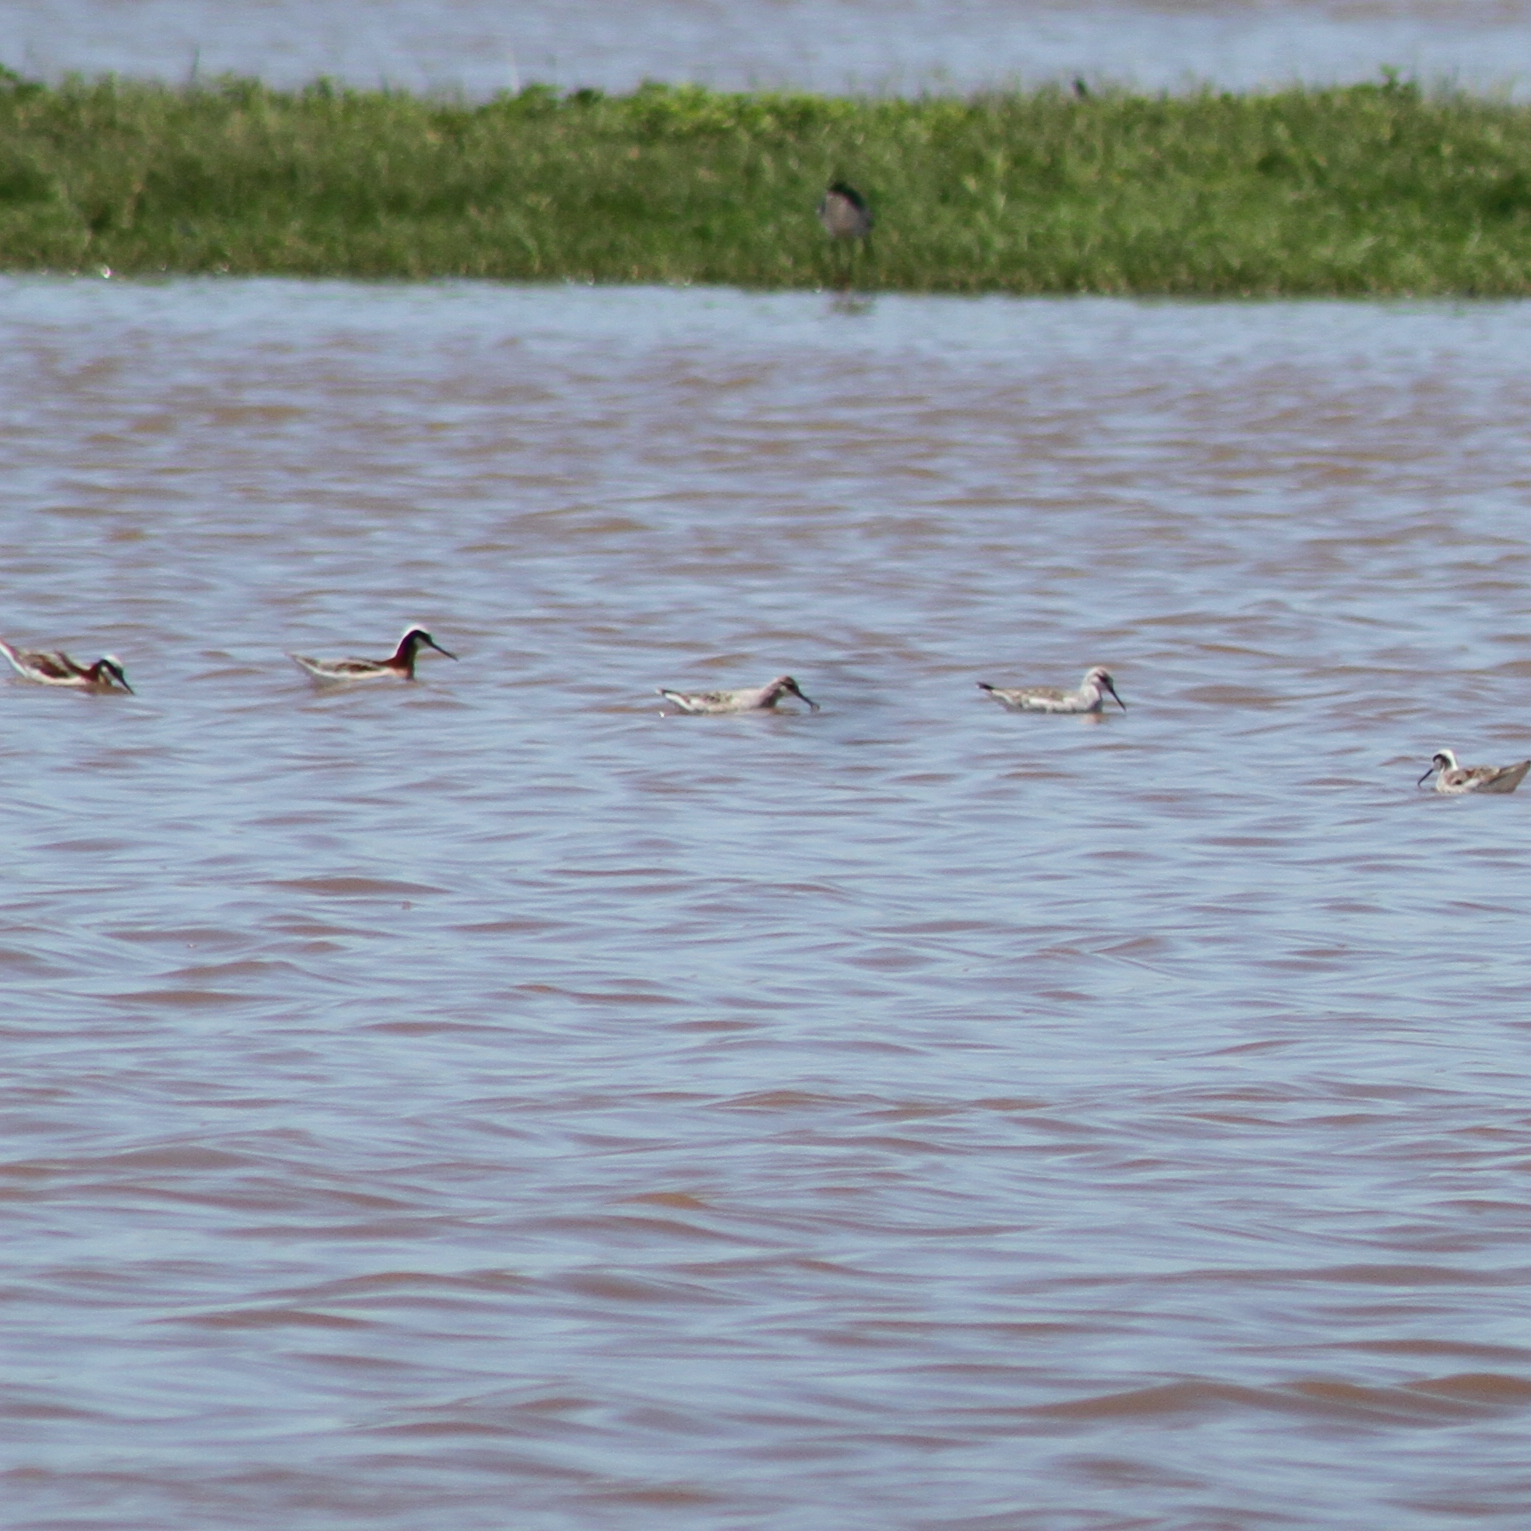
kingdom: Animalia
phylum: Chordata
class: Aves
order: Charadriiformes
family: Scolopacidae
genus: Phalaropus
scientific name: Phalaropus tricolor
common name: Wilson's phalarope
